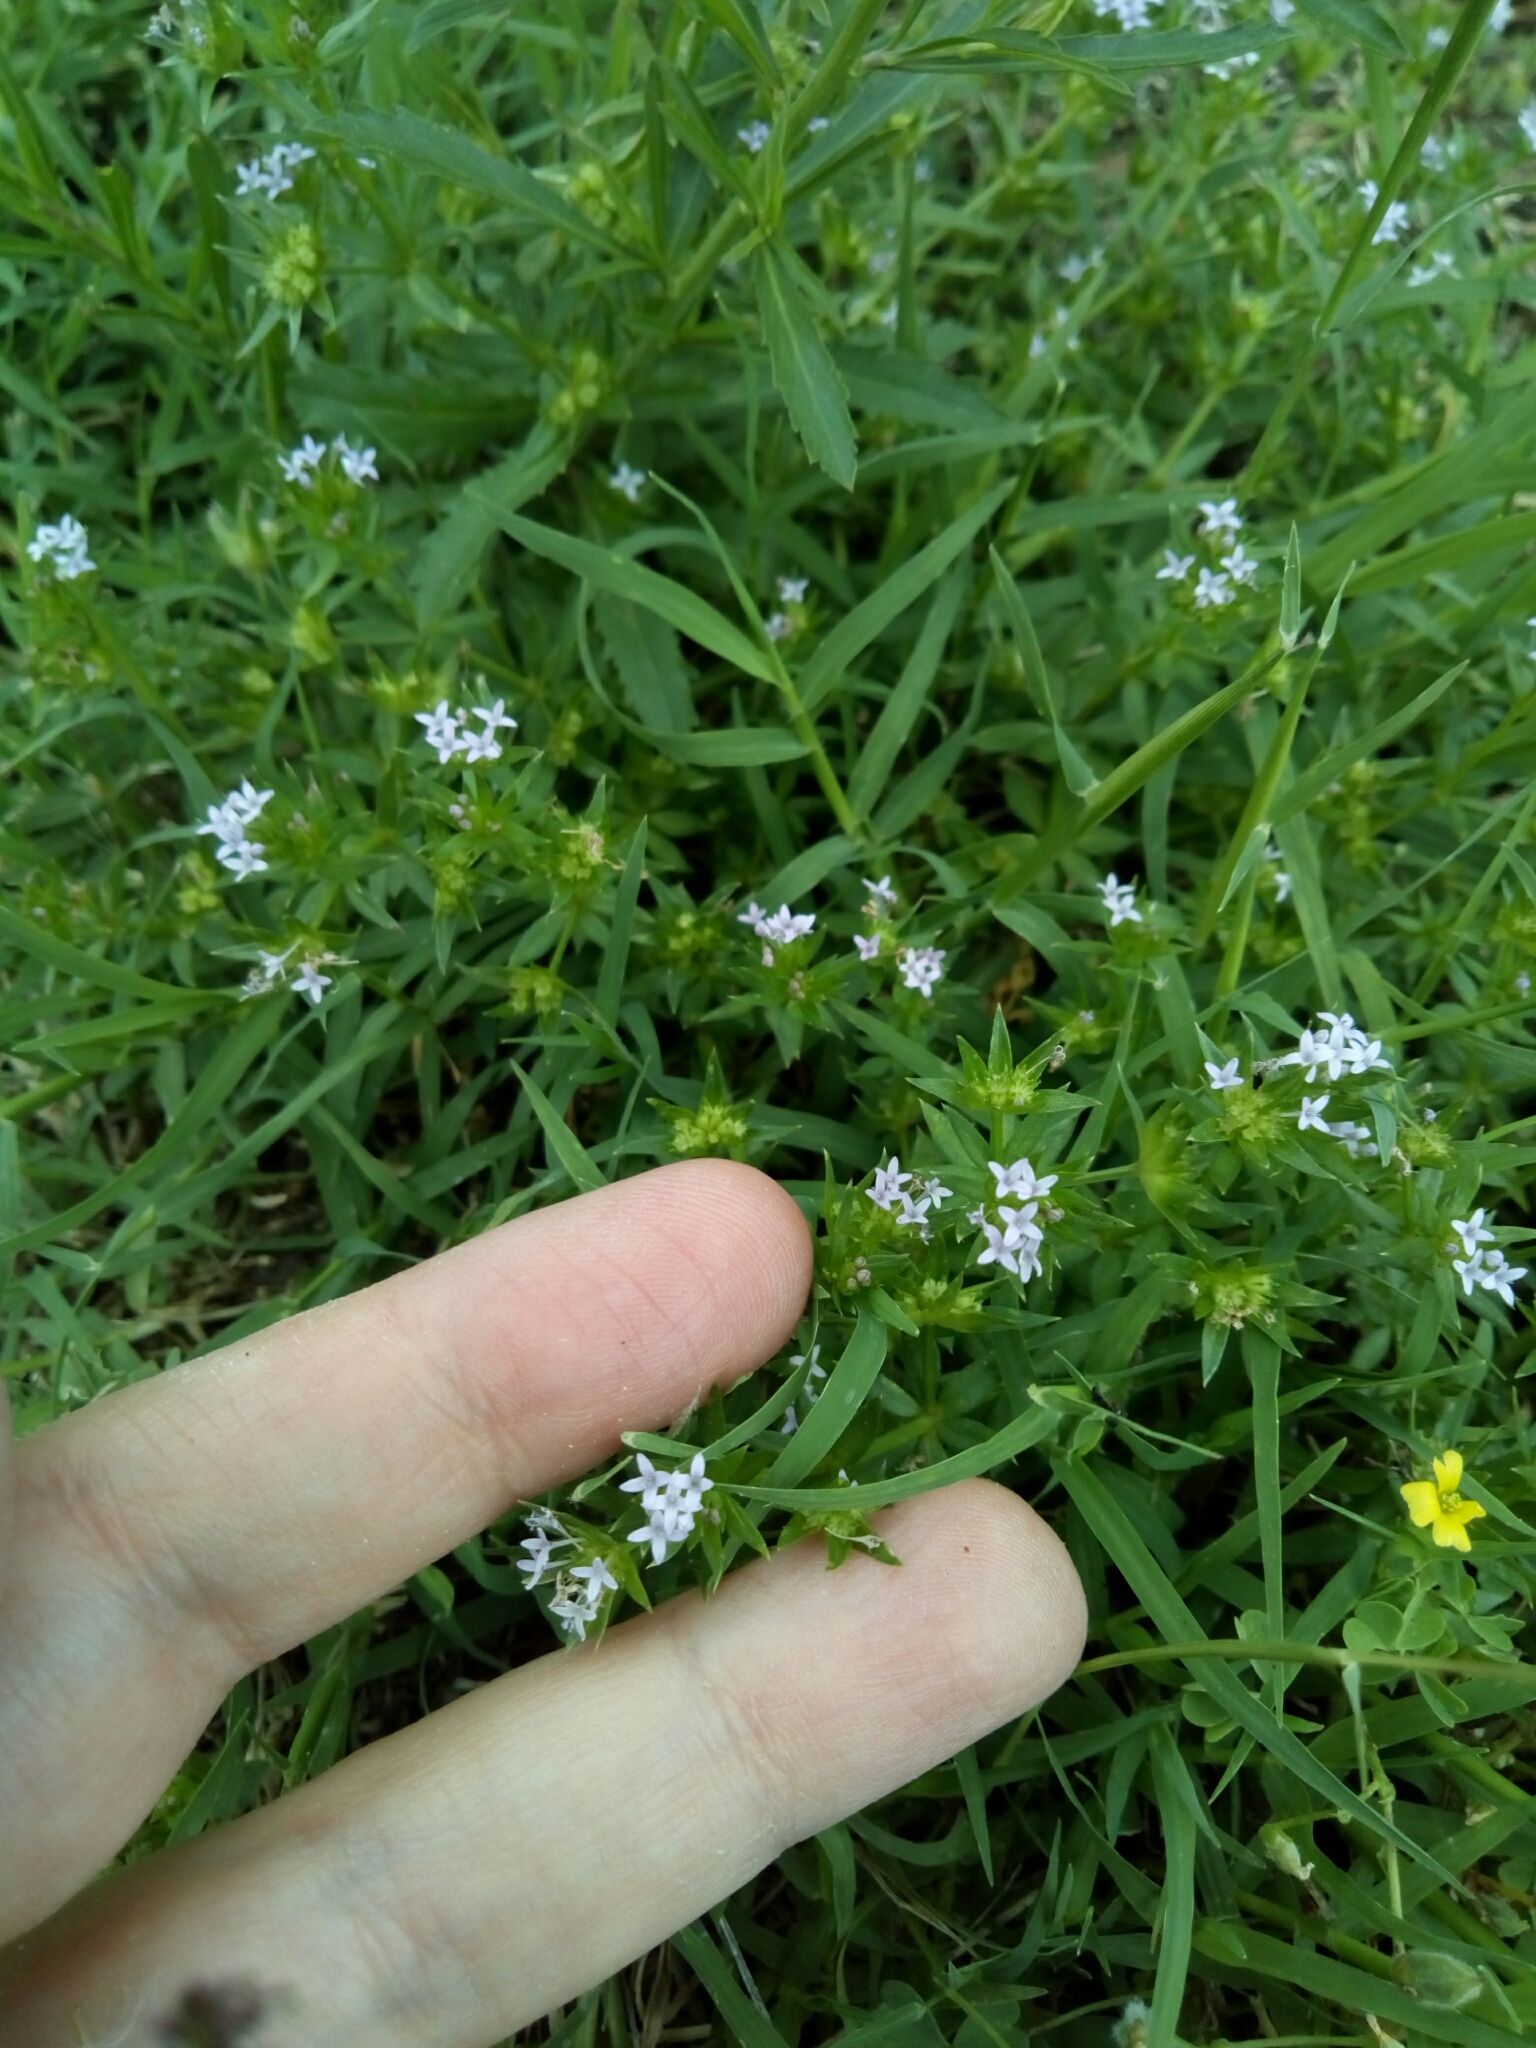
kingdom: Plantae
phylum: Tracheophyta
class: Magnoliopsida
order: Gentianales
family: Rubiaceae
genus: Sherardia
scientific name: Sherardia arvensis
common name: Field madder
